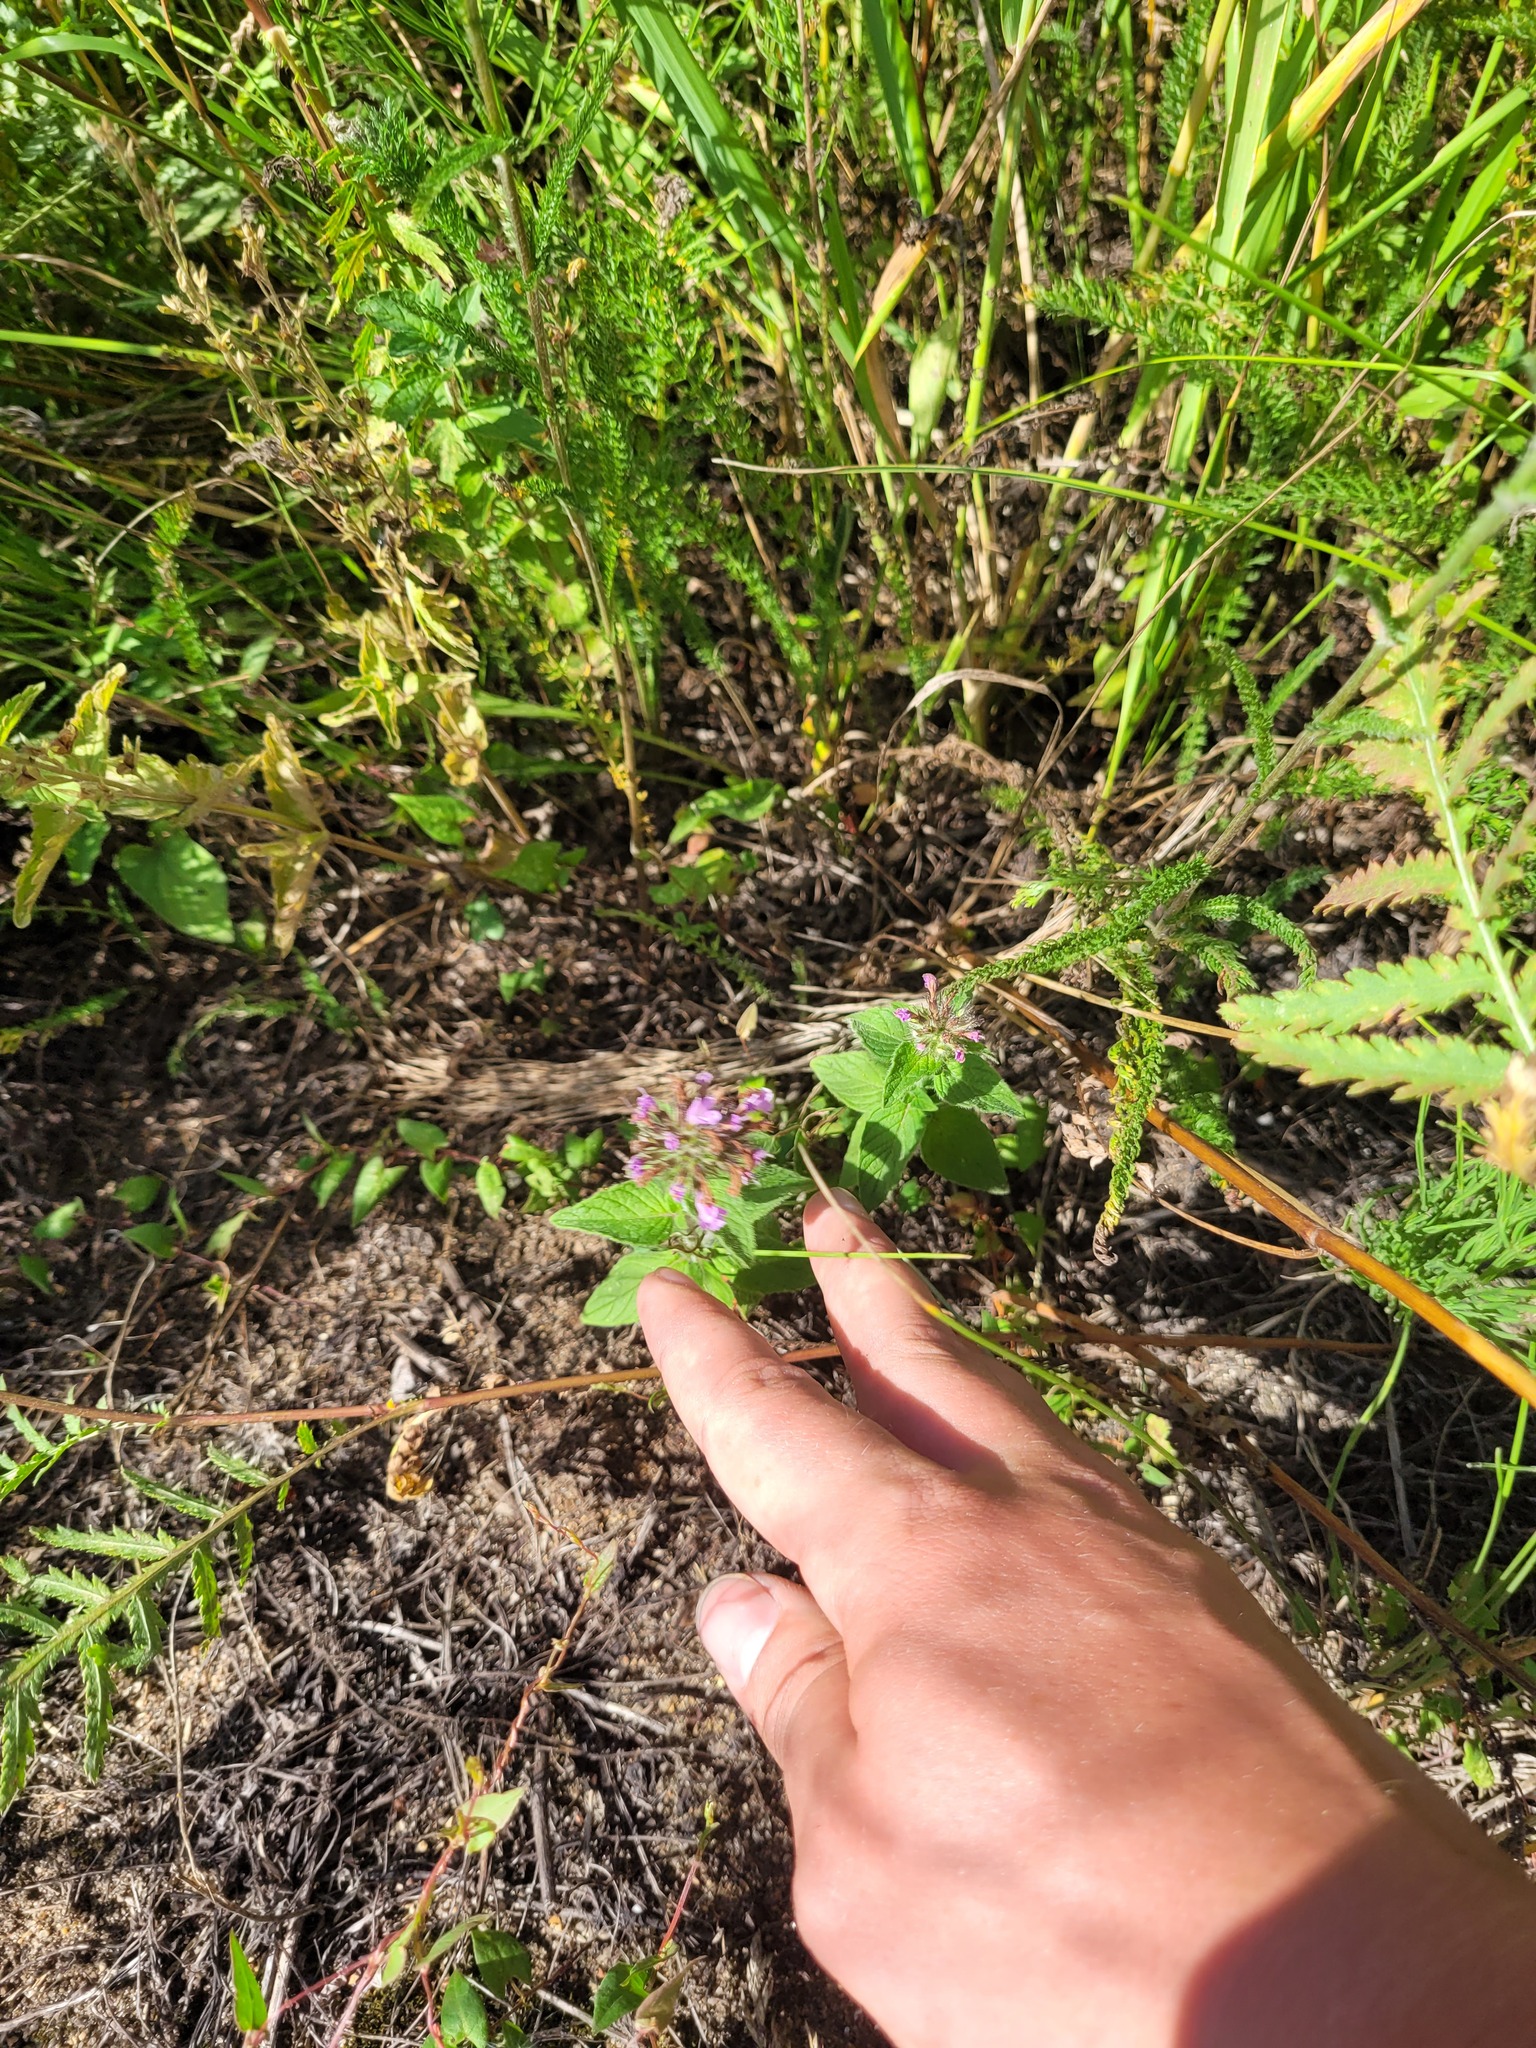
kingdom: Plantae
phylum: Tracheophyta
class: Magnoliopsida
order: Lamiales
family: Lamiaceae
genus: Clinopodium
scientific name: Clinopodium vulgare
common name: Wild basil
